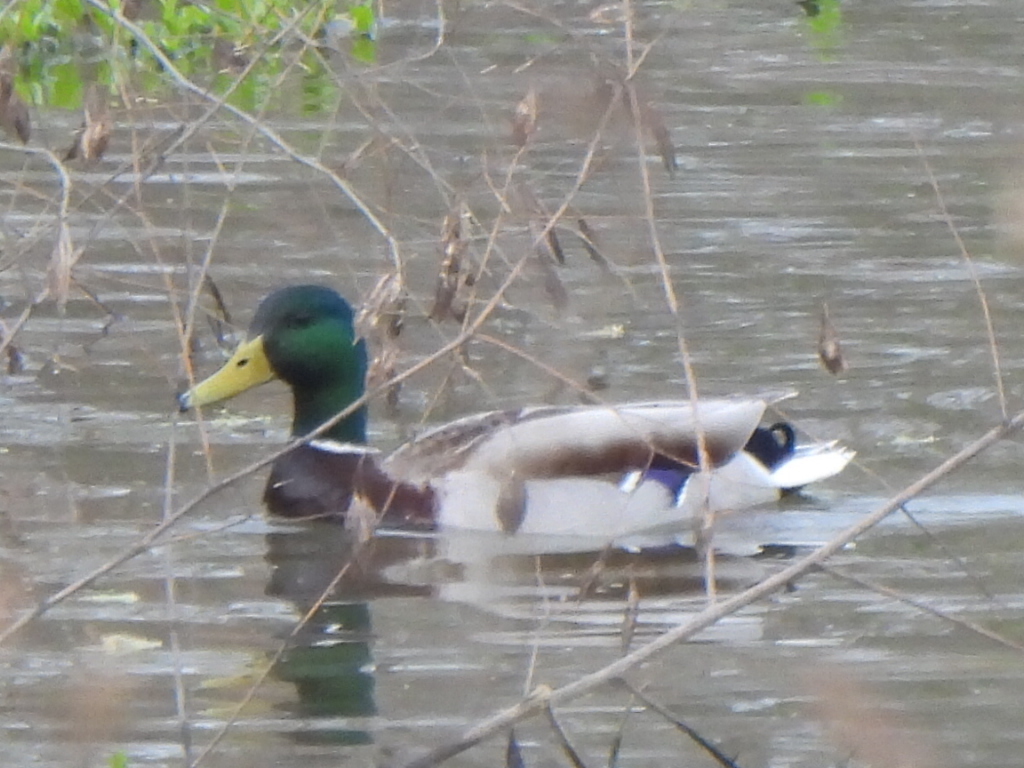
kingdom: Animalia
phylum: Chordata
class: Aves
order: Anseriformes
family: Anatidae
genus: Anas
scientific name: Anas platyrhynchos
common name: Mallard
